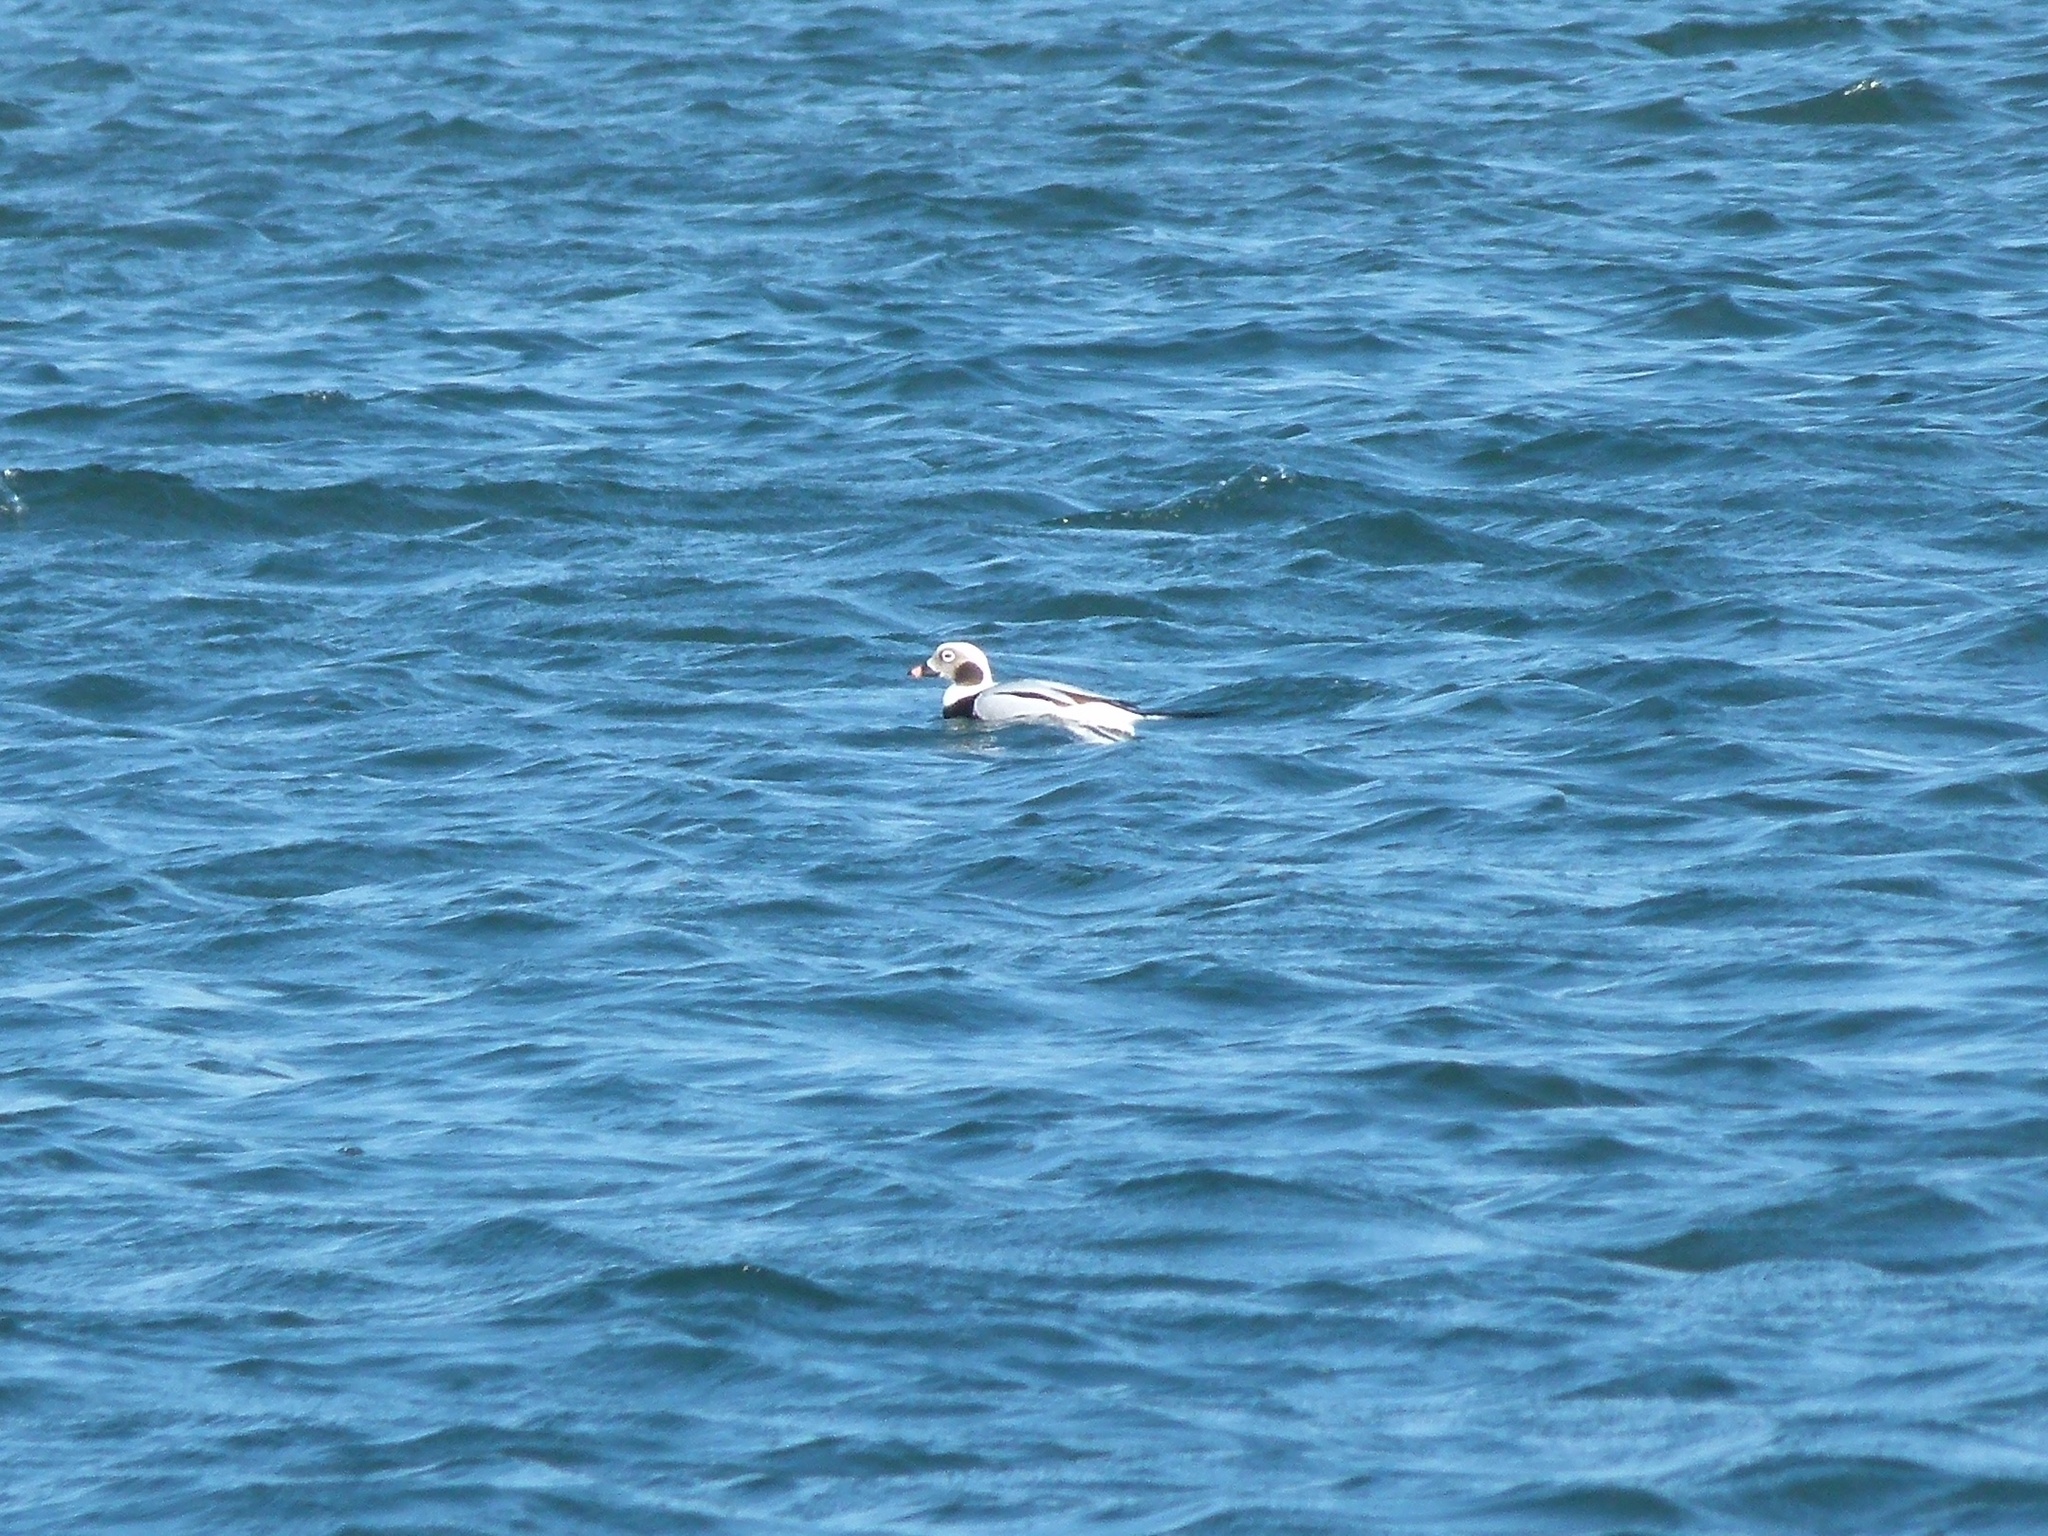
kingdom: Animalia
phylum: Chordata
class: Aves
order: Anseriformes
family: Anatidae
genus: Clangula
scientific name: Clangula hyemalis
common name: Long-tailed duck
